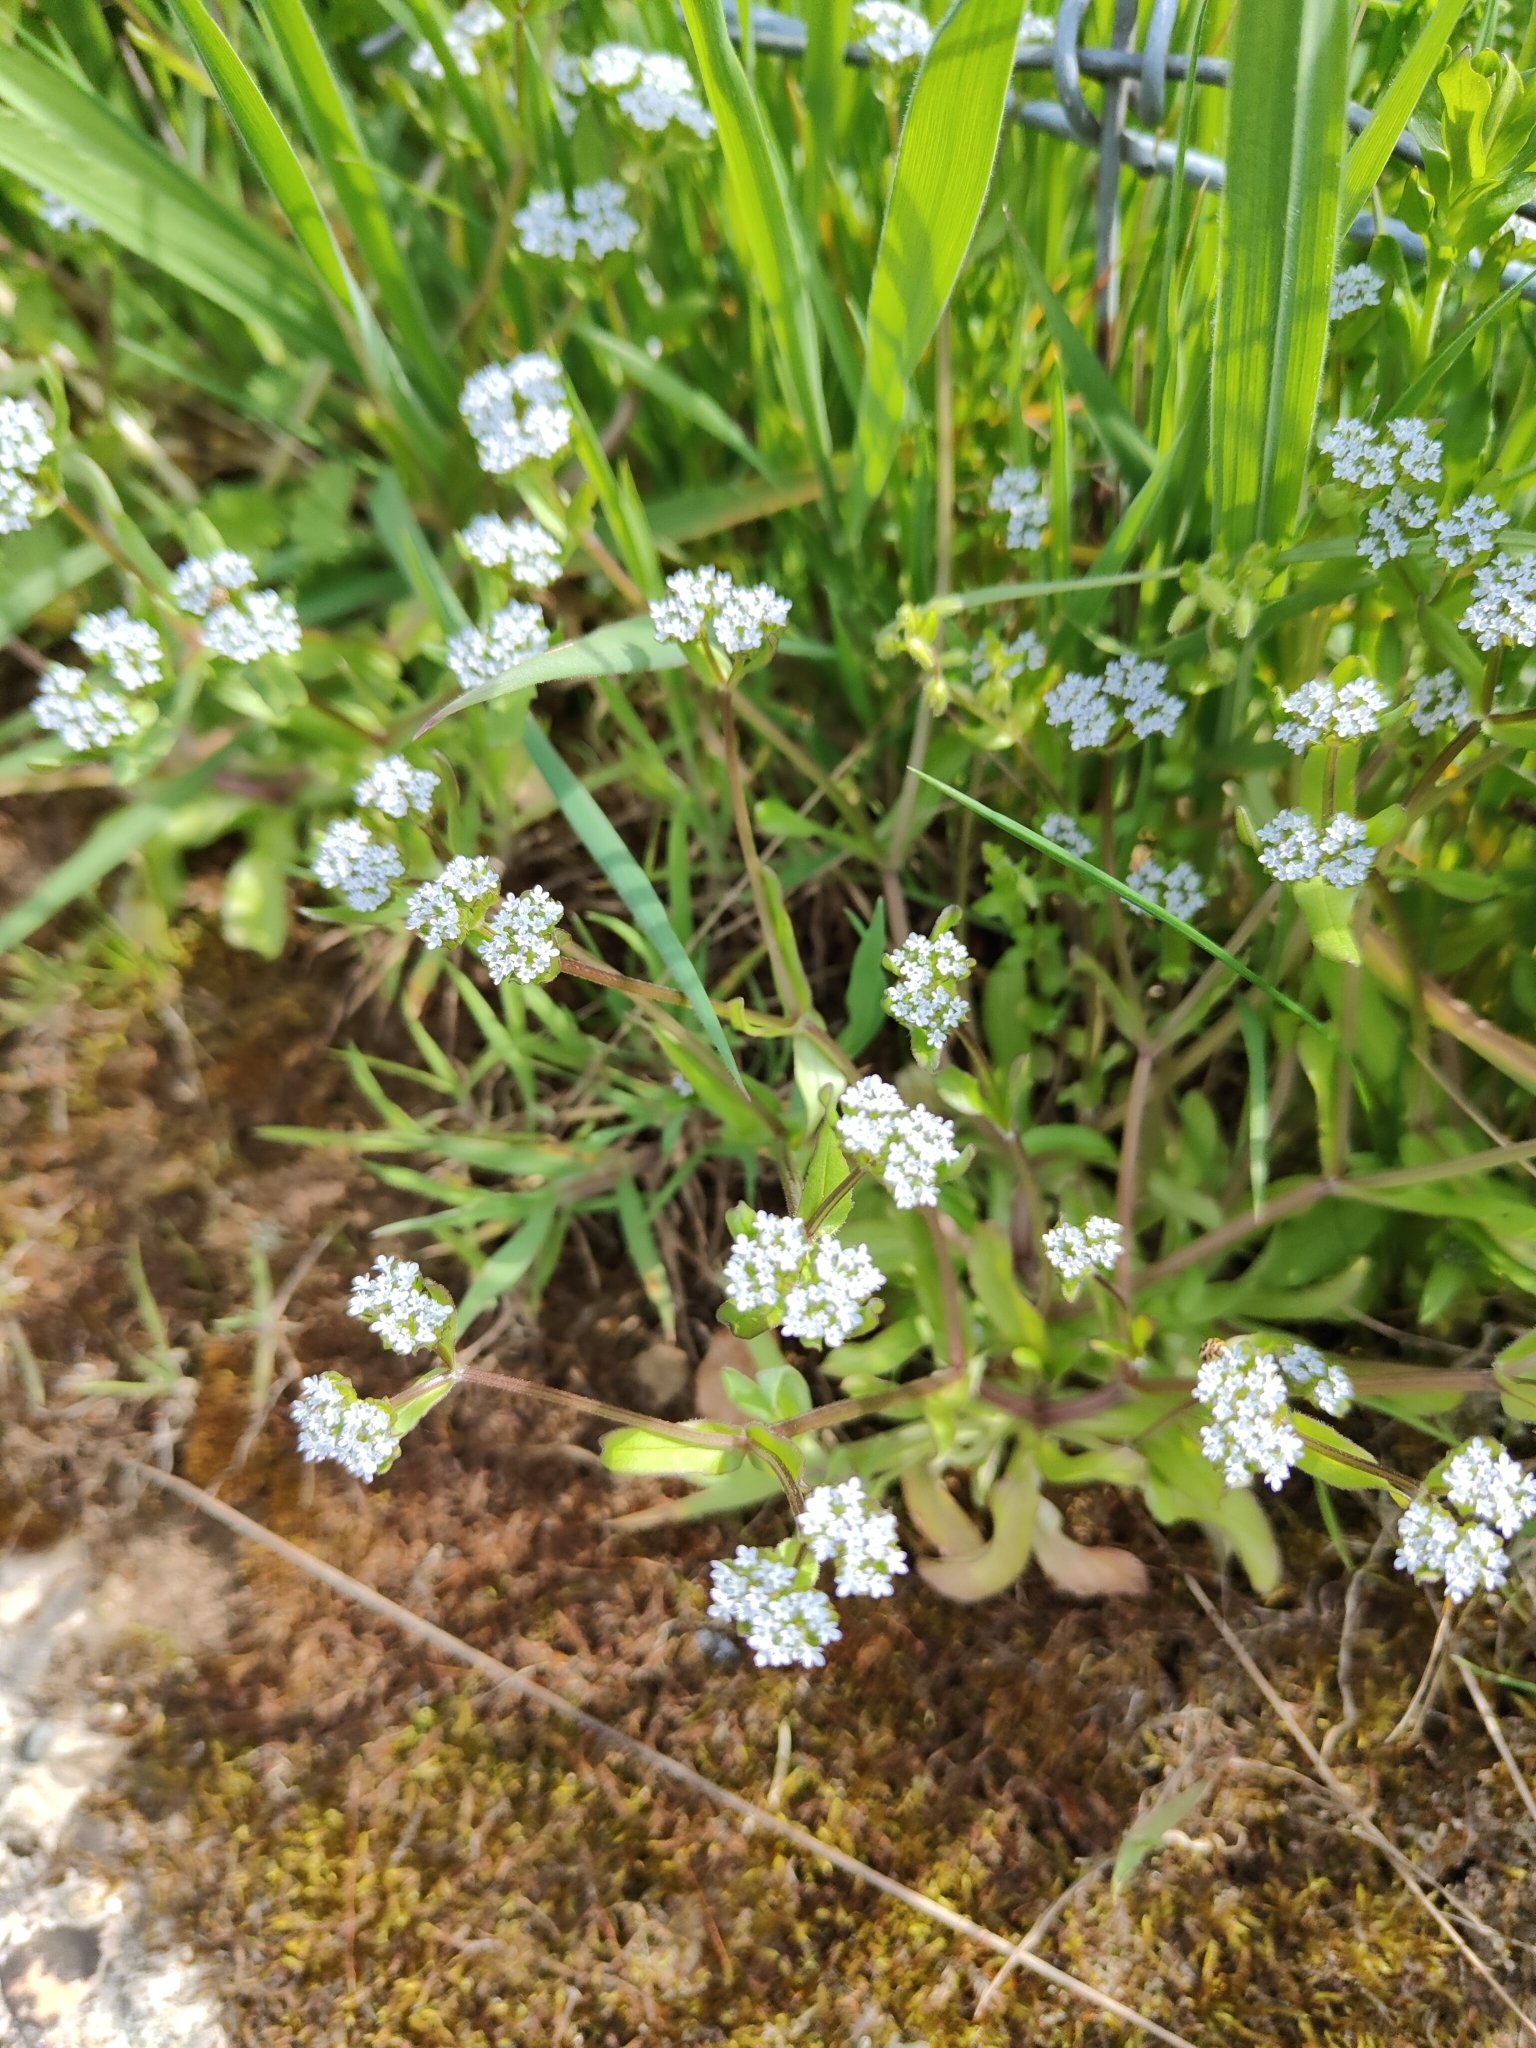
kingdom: Plantae
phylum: Tracheophyta
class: Magnoliopsida
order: Dipsacales
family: Caprifoliaceae
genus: Valerianella
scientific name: Valerianella locusta
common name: Common cornsalad
